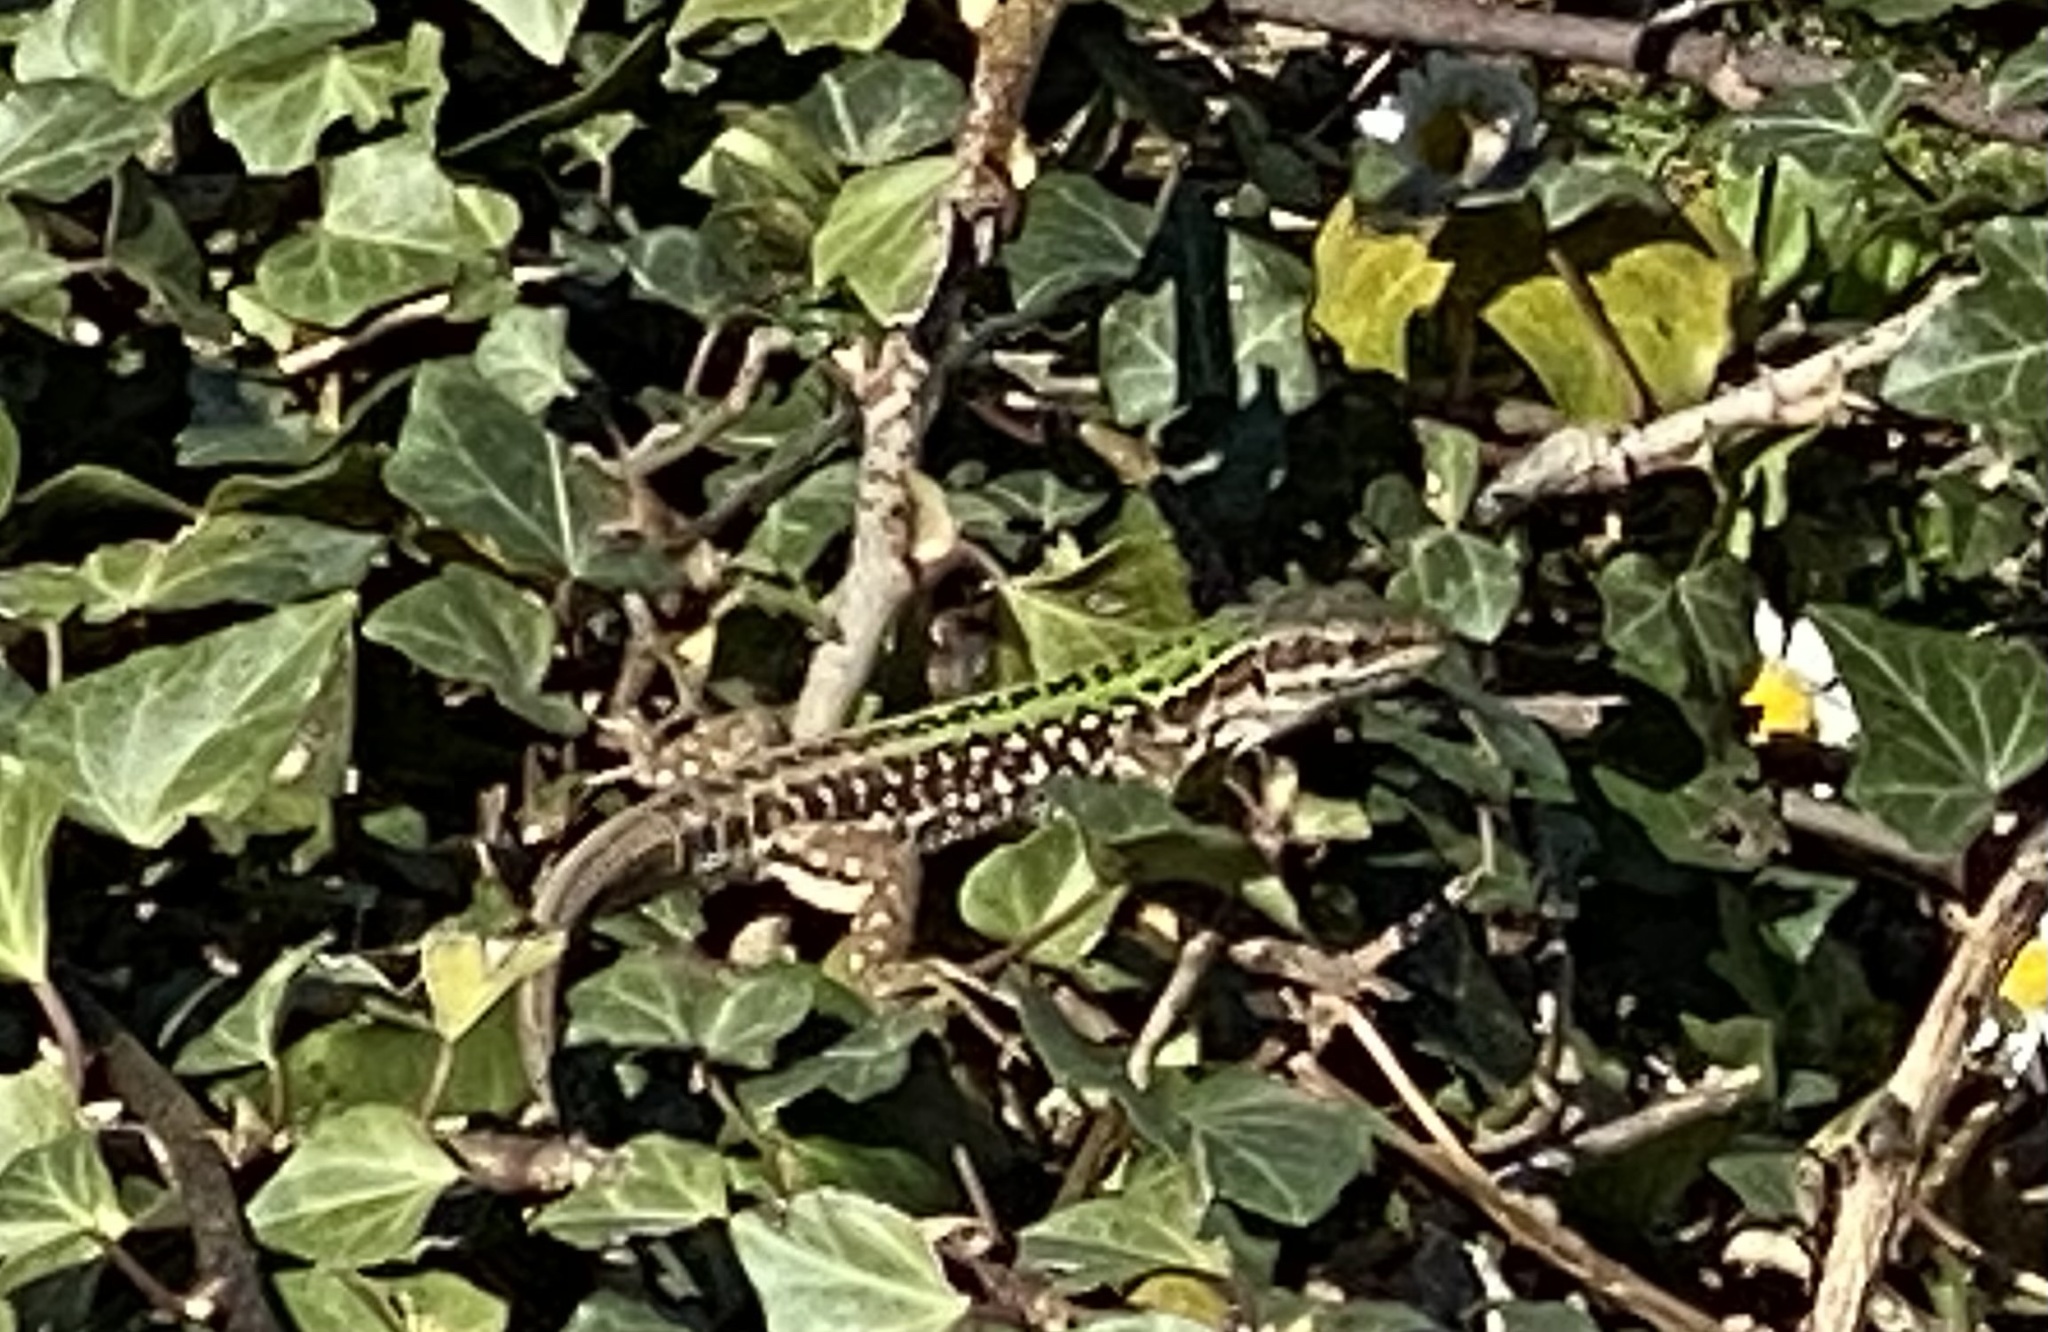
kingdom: Animalia
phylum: Chordata
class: Squamata
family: Lacertidae
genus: Podarcis
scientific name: Podarcis siculus
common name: Italian wall lizard
